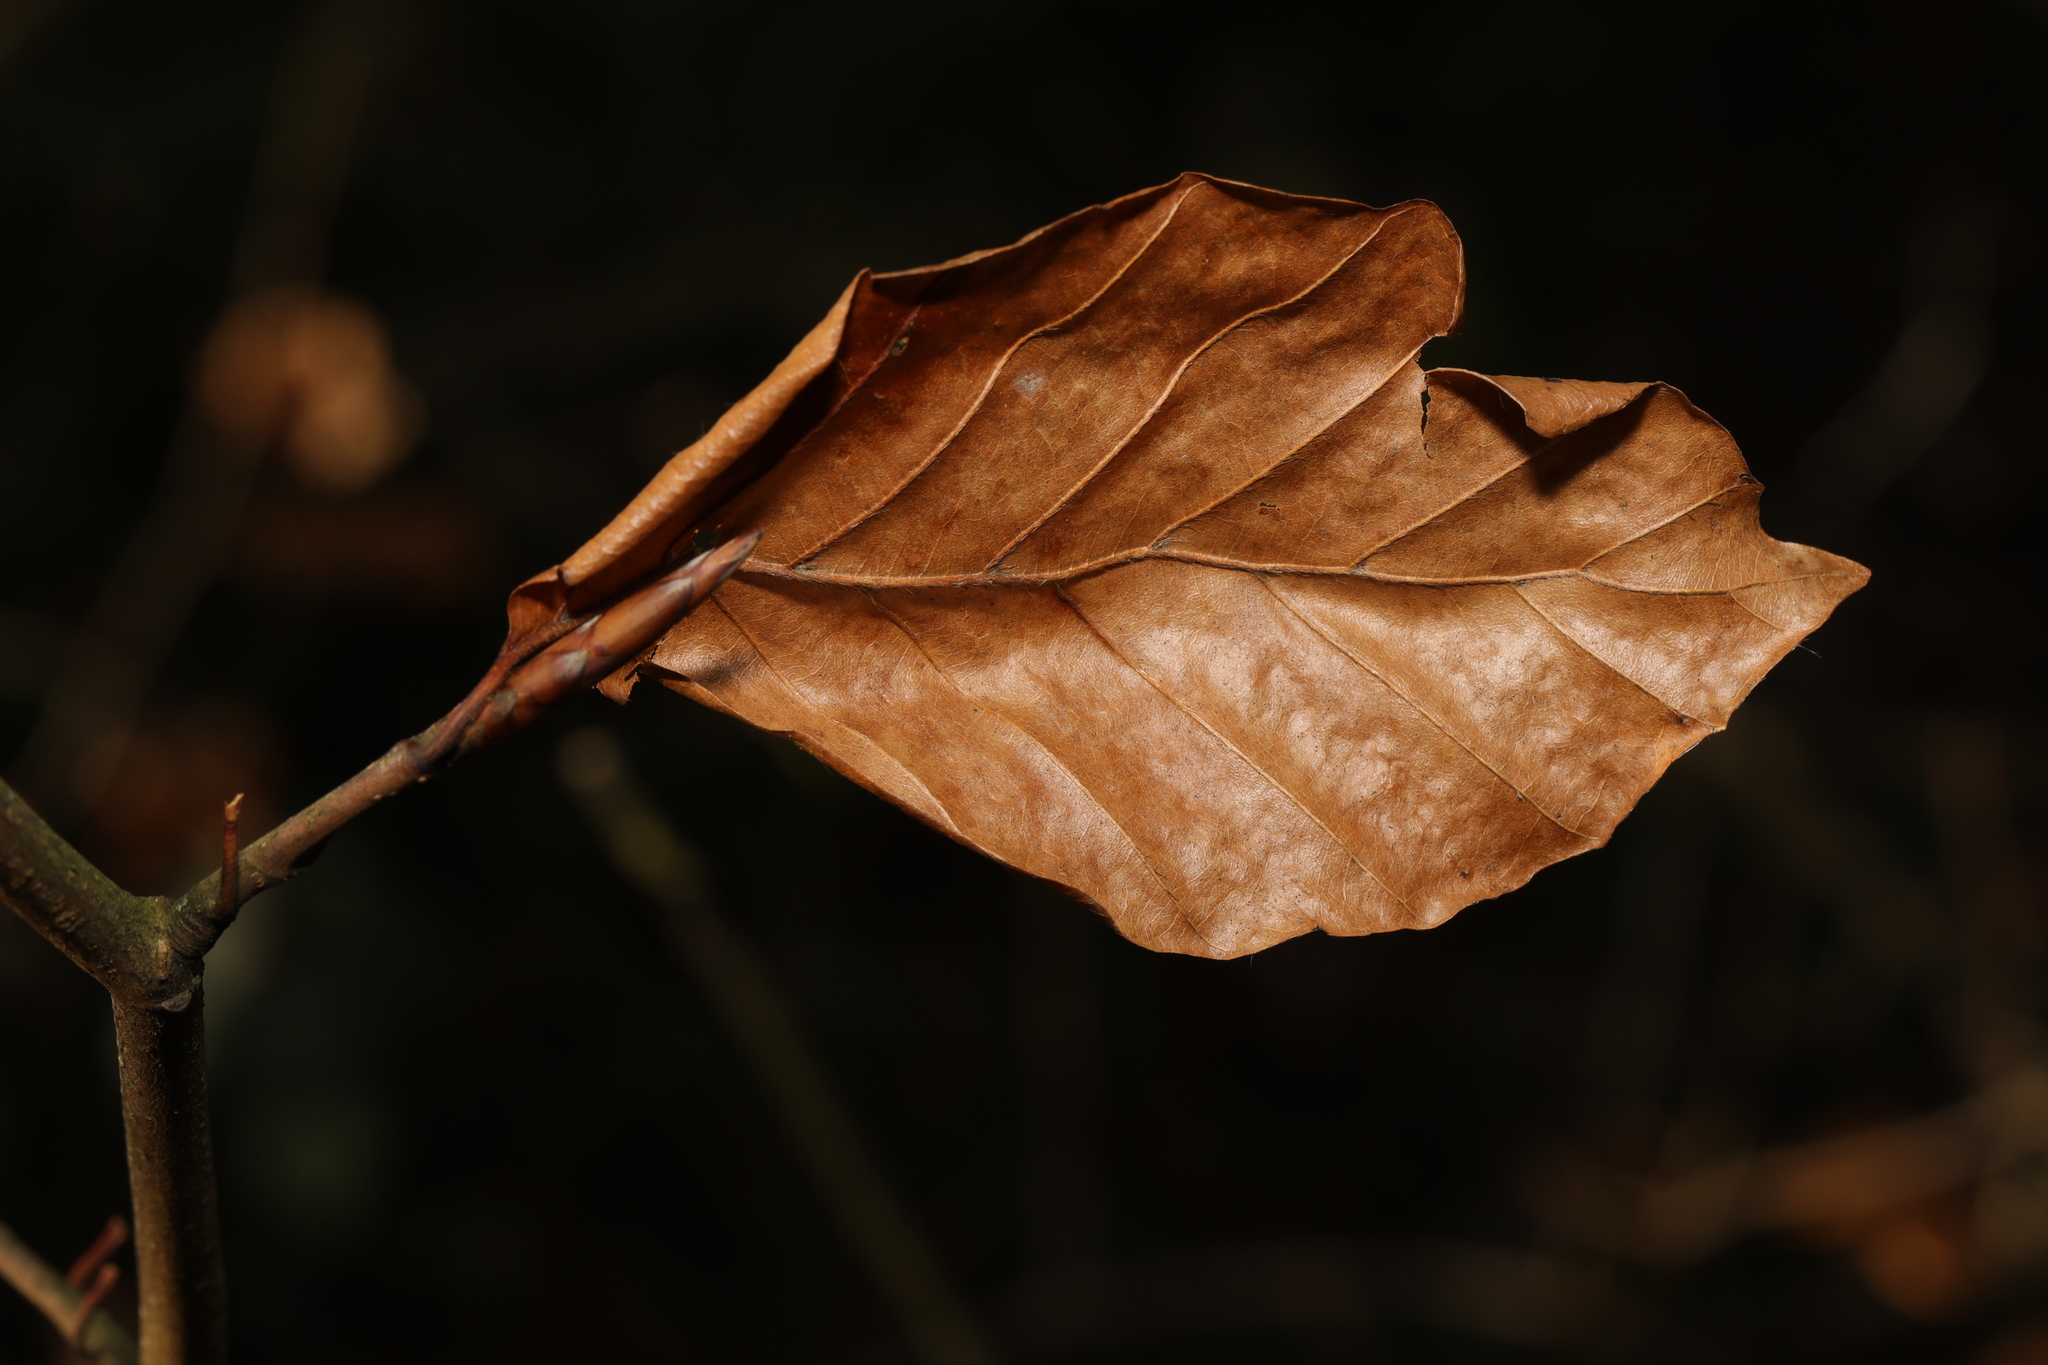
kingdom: Plantae
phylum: Tracheophyta
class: Magnoliopsida
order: Fagales
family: Fagaceae
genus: Fagus
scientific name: Fagus sylvatica
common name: Beech
